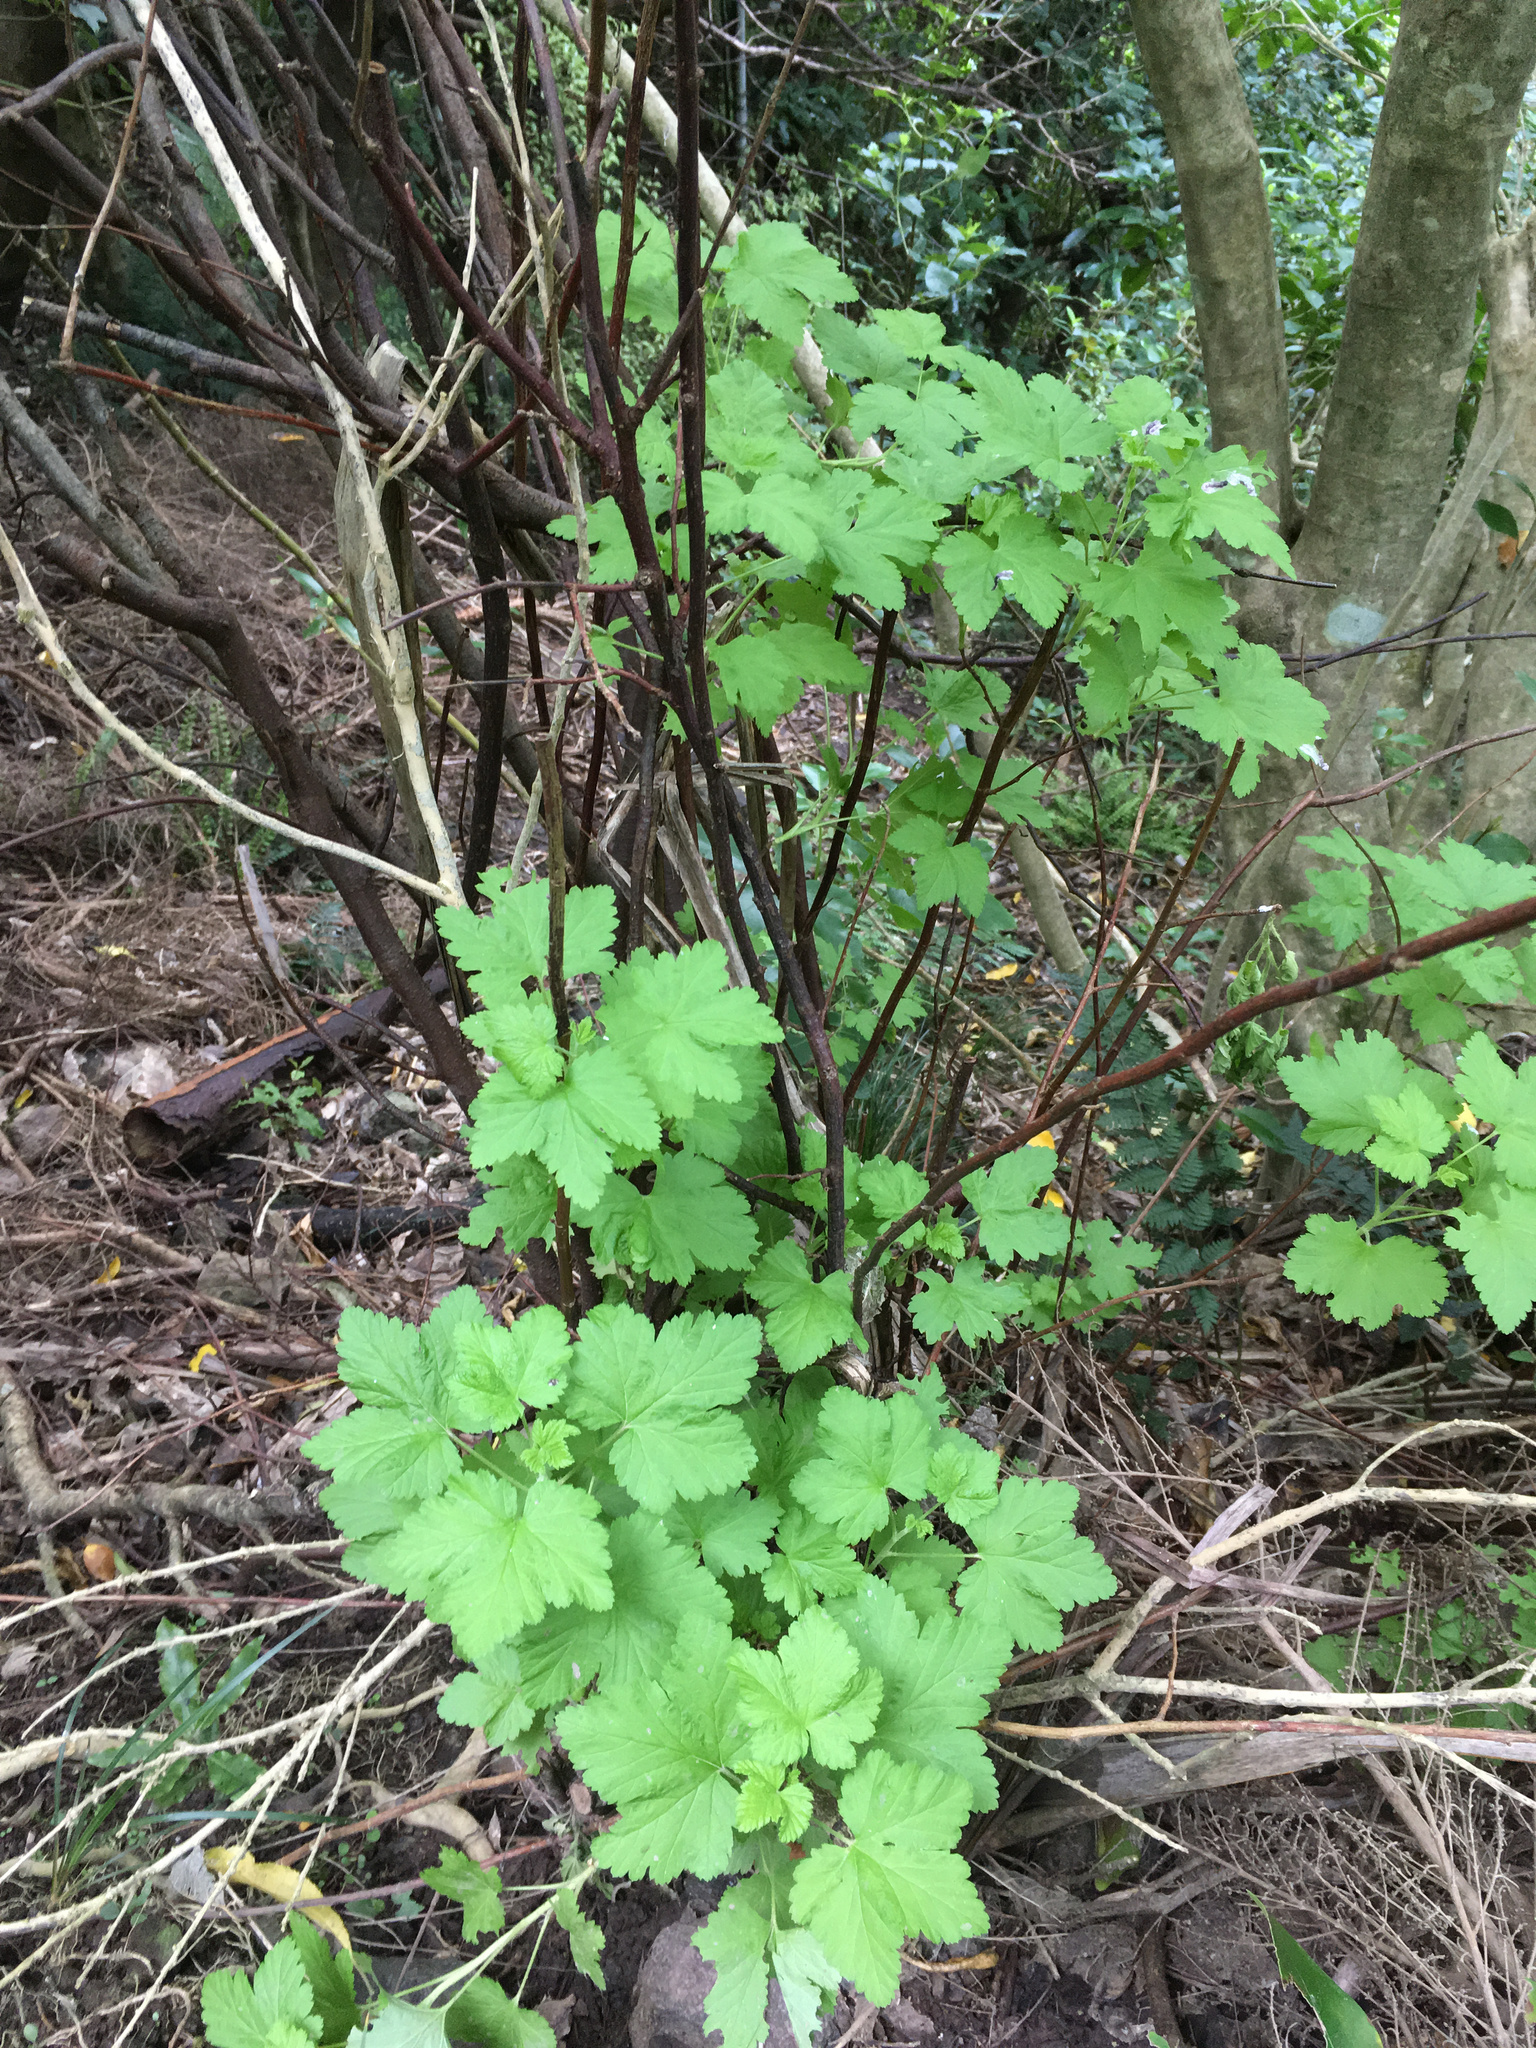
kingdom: Plantae
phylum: Tracheophyta
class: Magnoliopsida
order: Saxifragales
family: Grossulariaceae
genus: Ribes
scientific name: Ribes sanguineum
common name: Flowering currant
